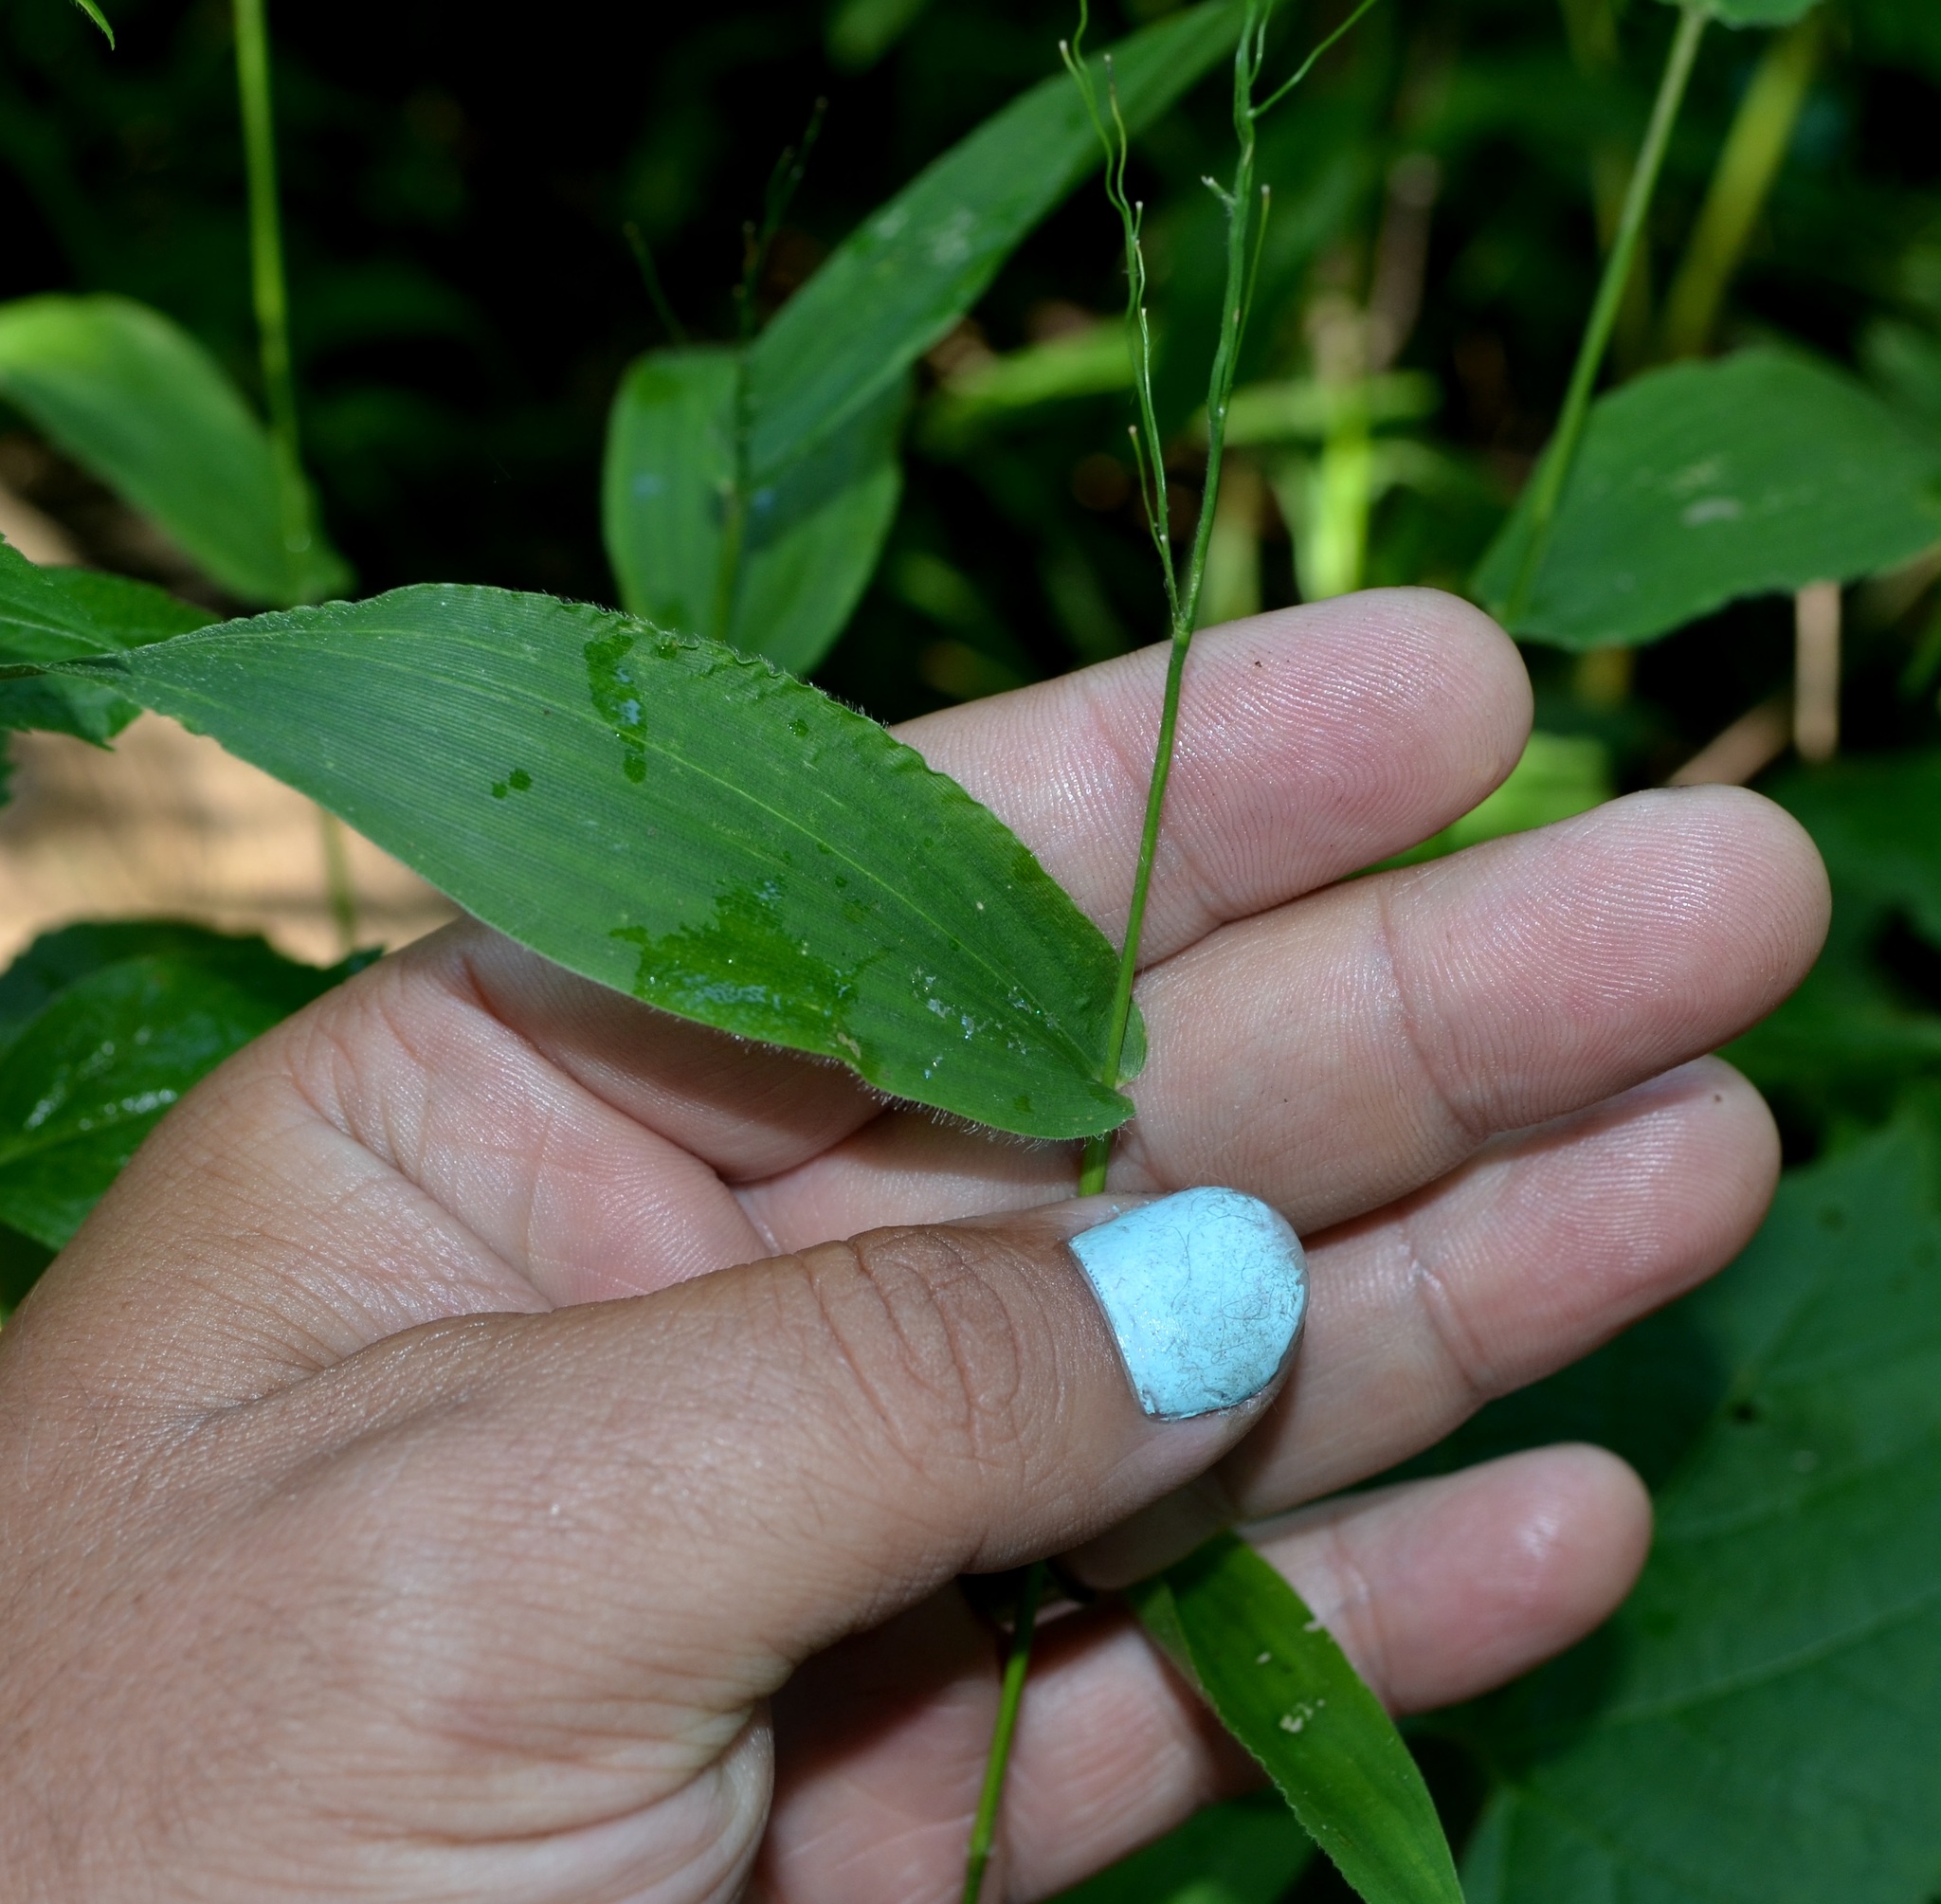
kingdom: Plantae
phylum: Tracheophyta
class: Liliopsida
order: Poales
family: Poaceae
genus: Dichanthelium
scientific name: Dichanthelium clandestinum
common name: Deer-tongue grass
